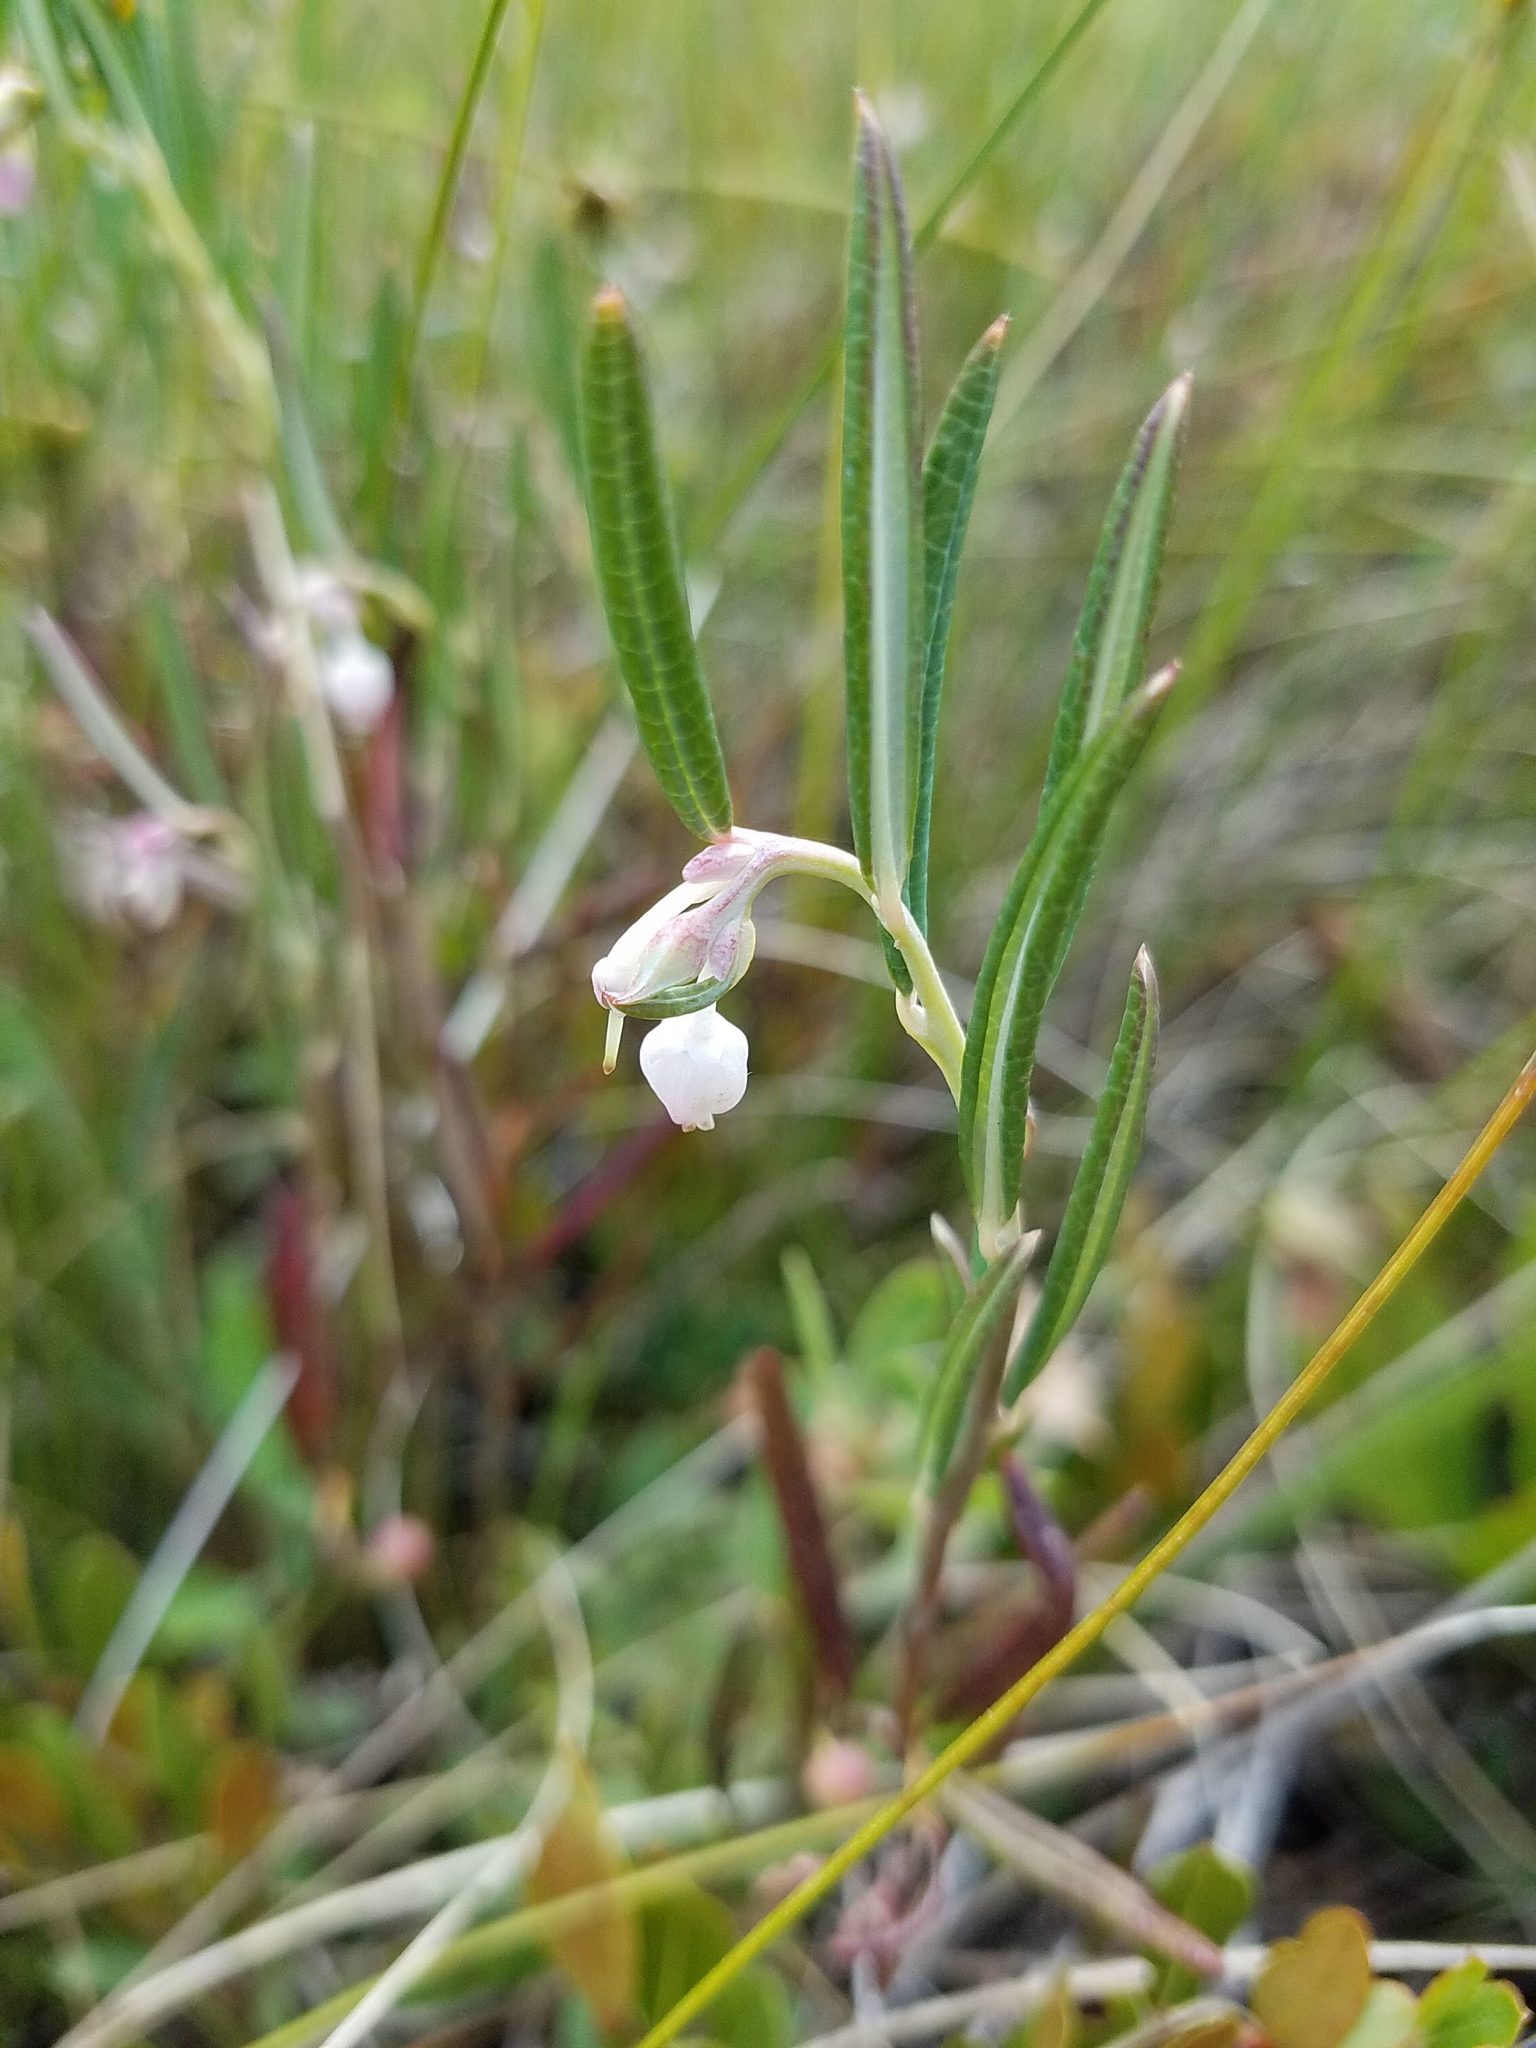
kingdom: Plantae
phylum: Tracheophyta
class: Magnoliopsida
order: Ericales
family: Ericaceae
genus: Andromeda
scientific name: Andromeda polifolia
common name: Bog-rosemary
